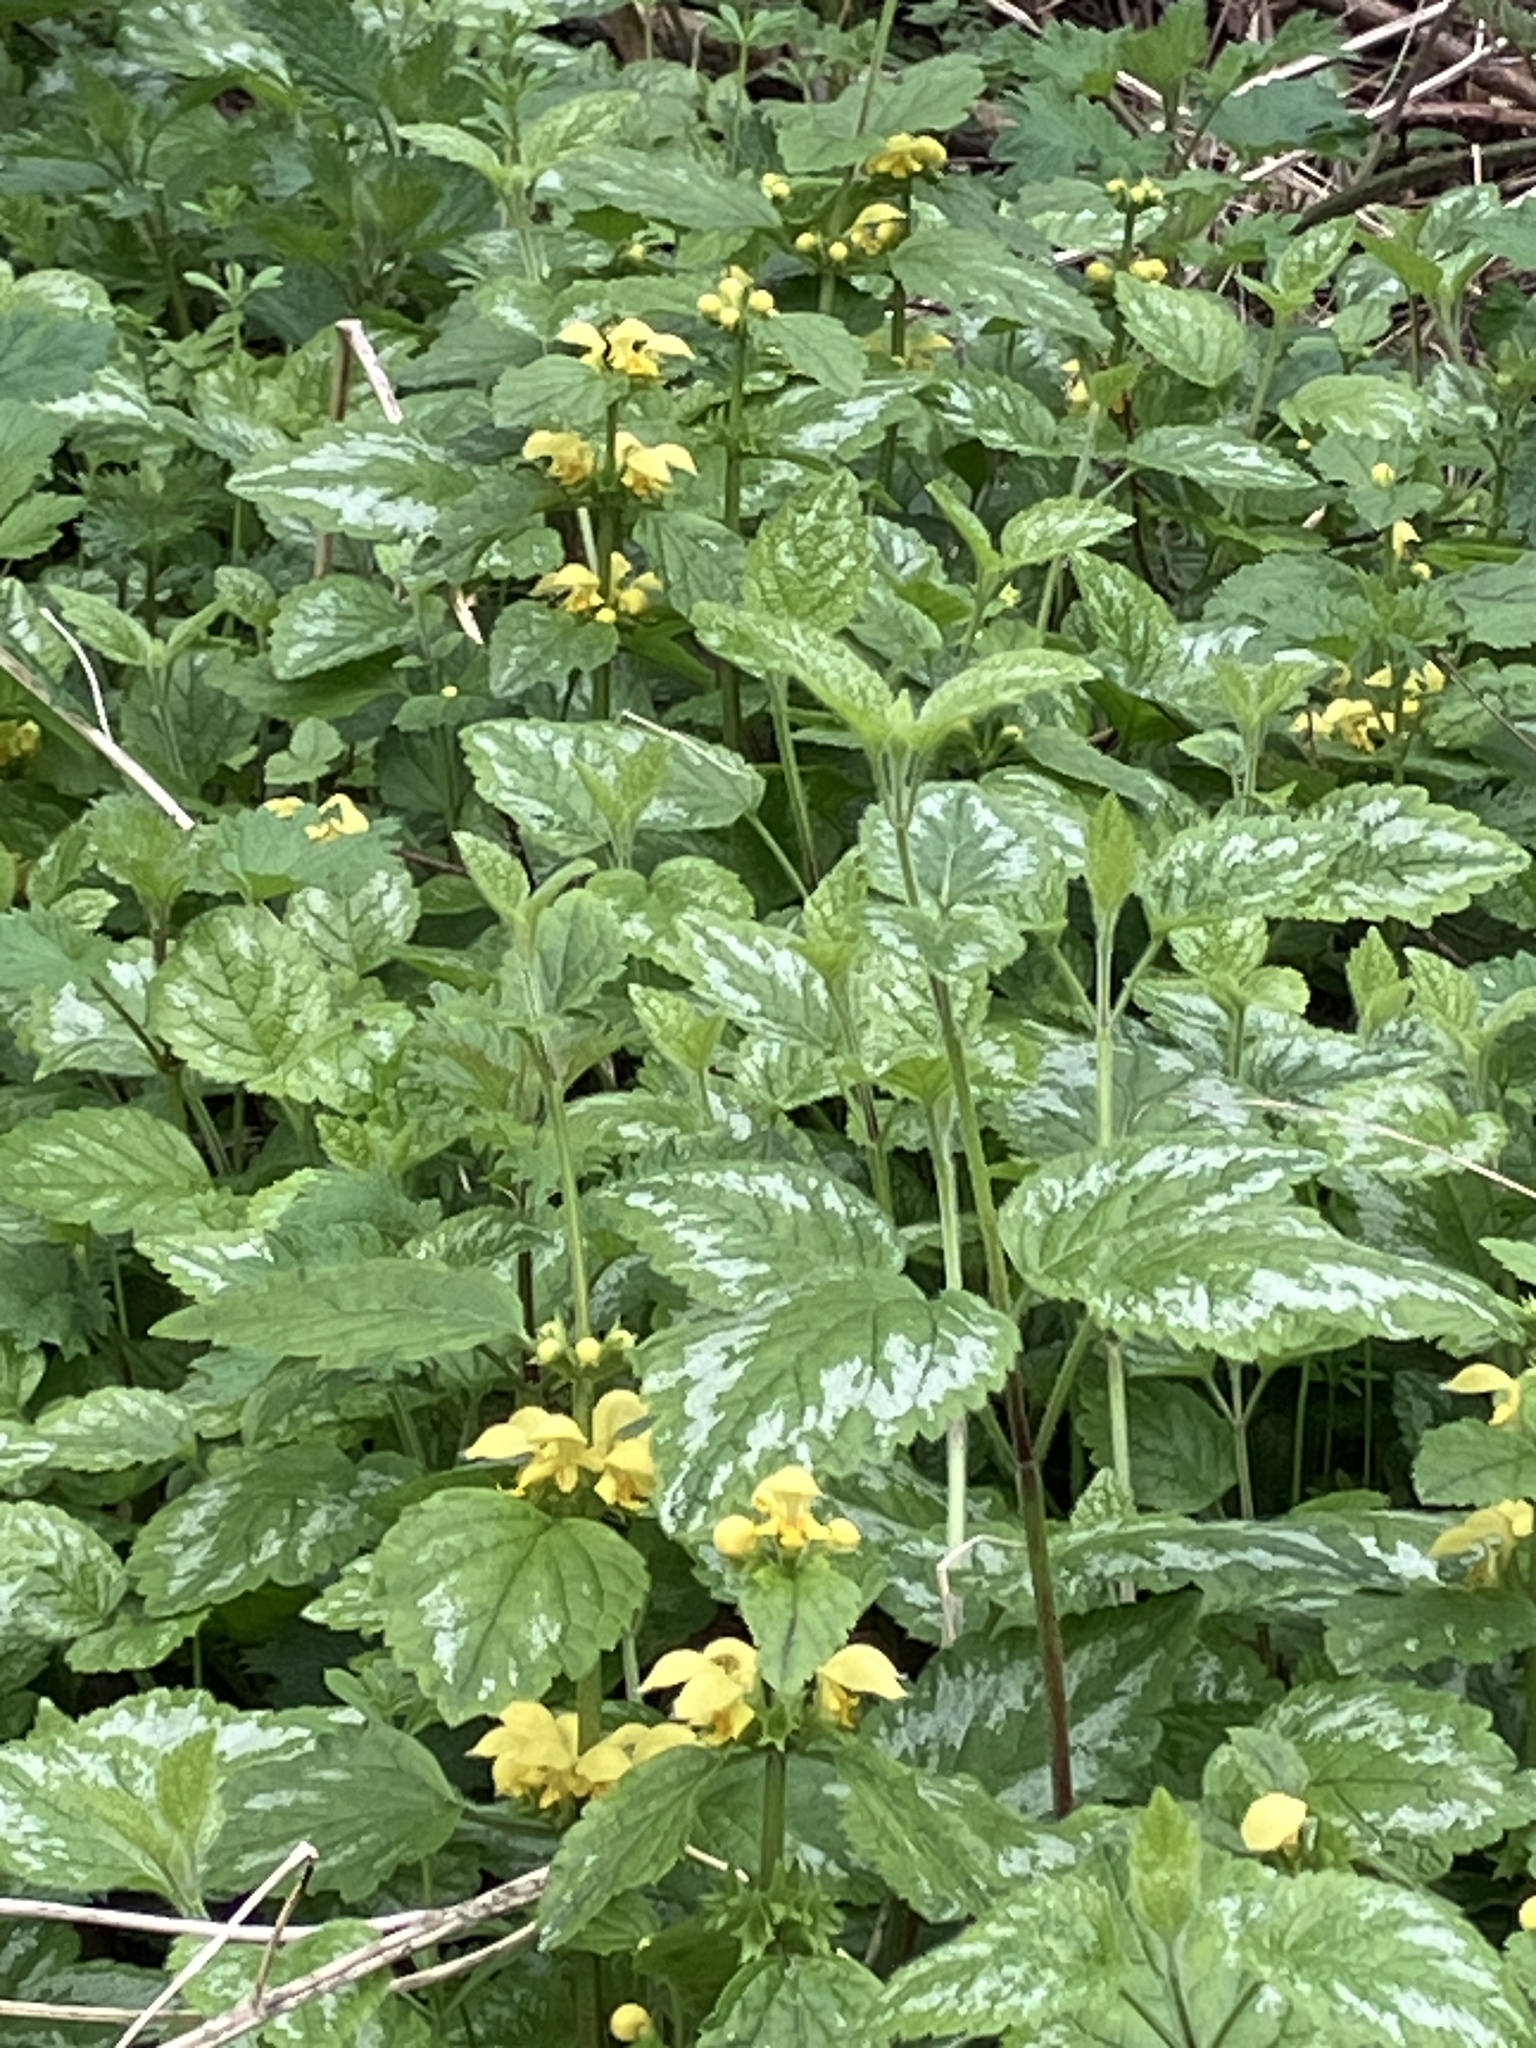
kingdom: Plantae
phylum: Tracheophyta
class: Magnoliopsida
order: Lamiales
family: Lamiaceae
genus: Lamium
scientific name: Lamium galeobdolon
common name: Yellow archangel
